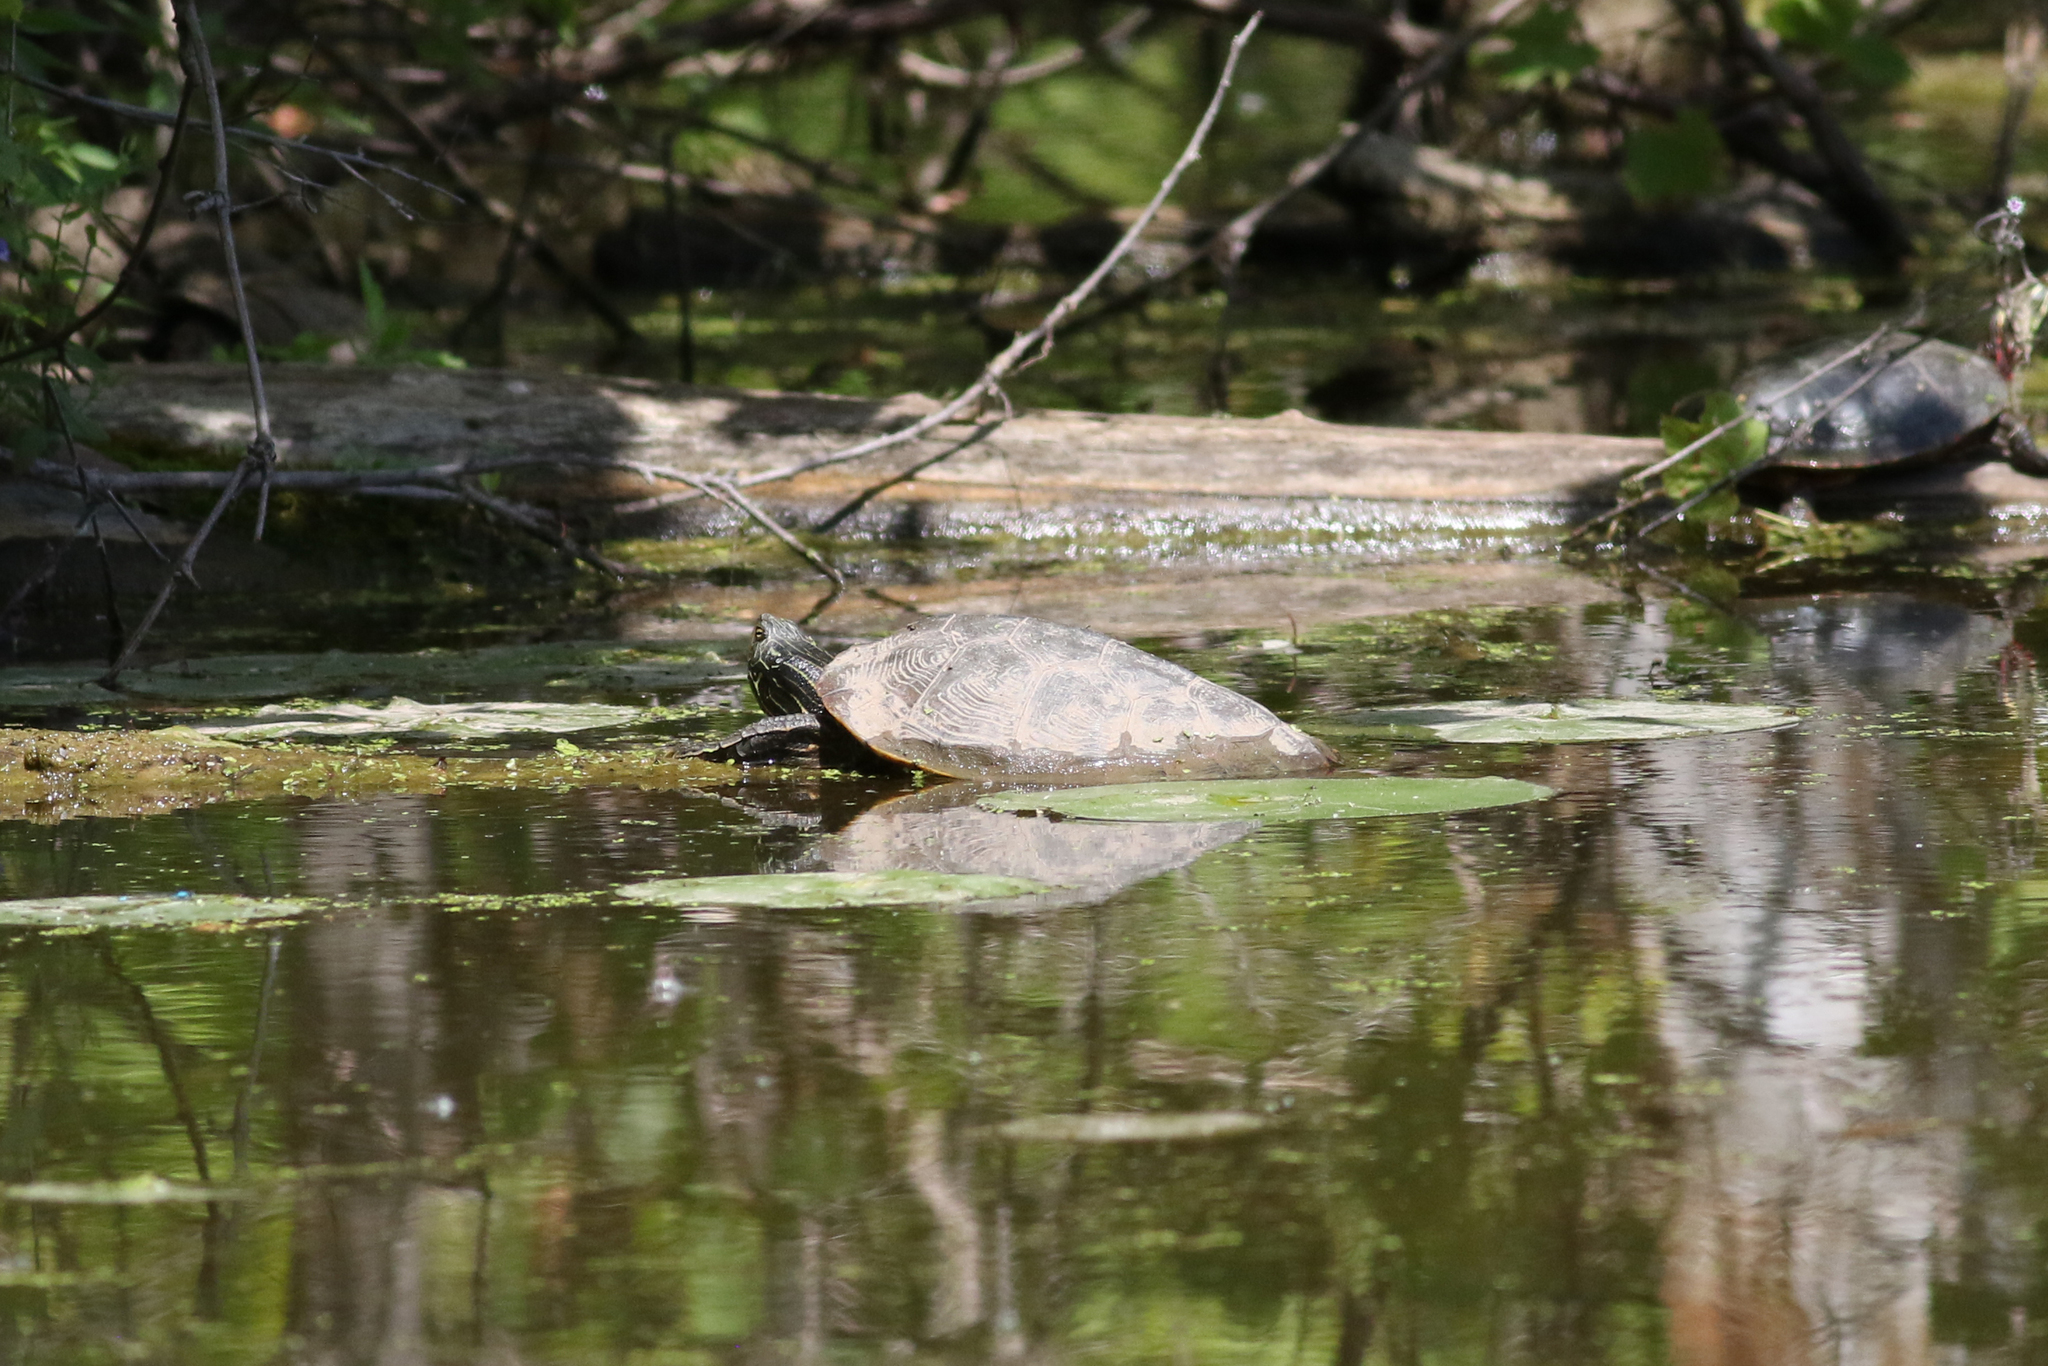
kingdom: Animalia
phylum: Chordata
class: Testudines
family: Emydidae
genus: Graptemys
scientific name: Graptemys geographica
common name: Common map turtle
